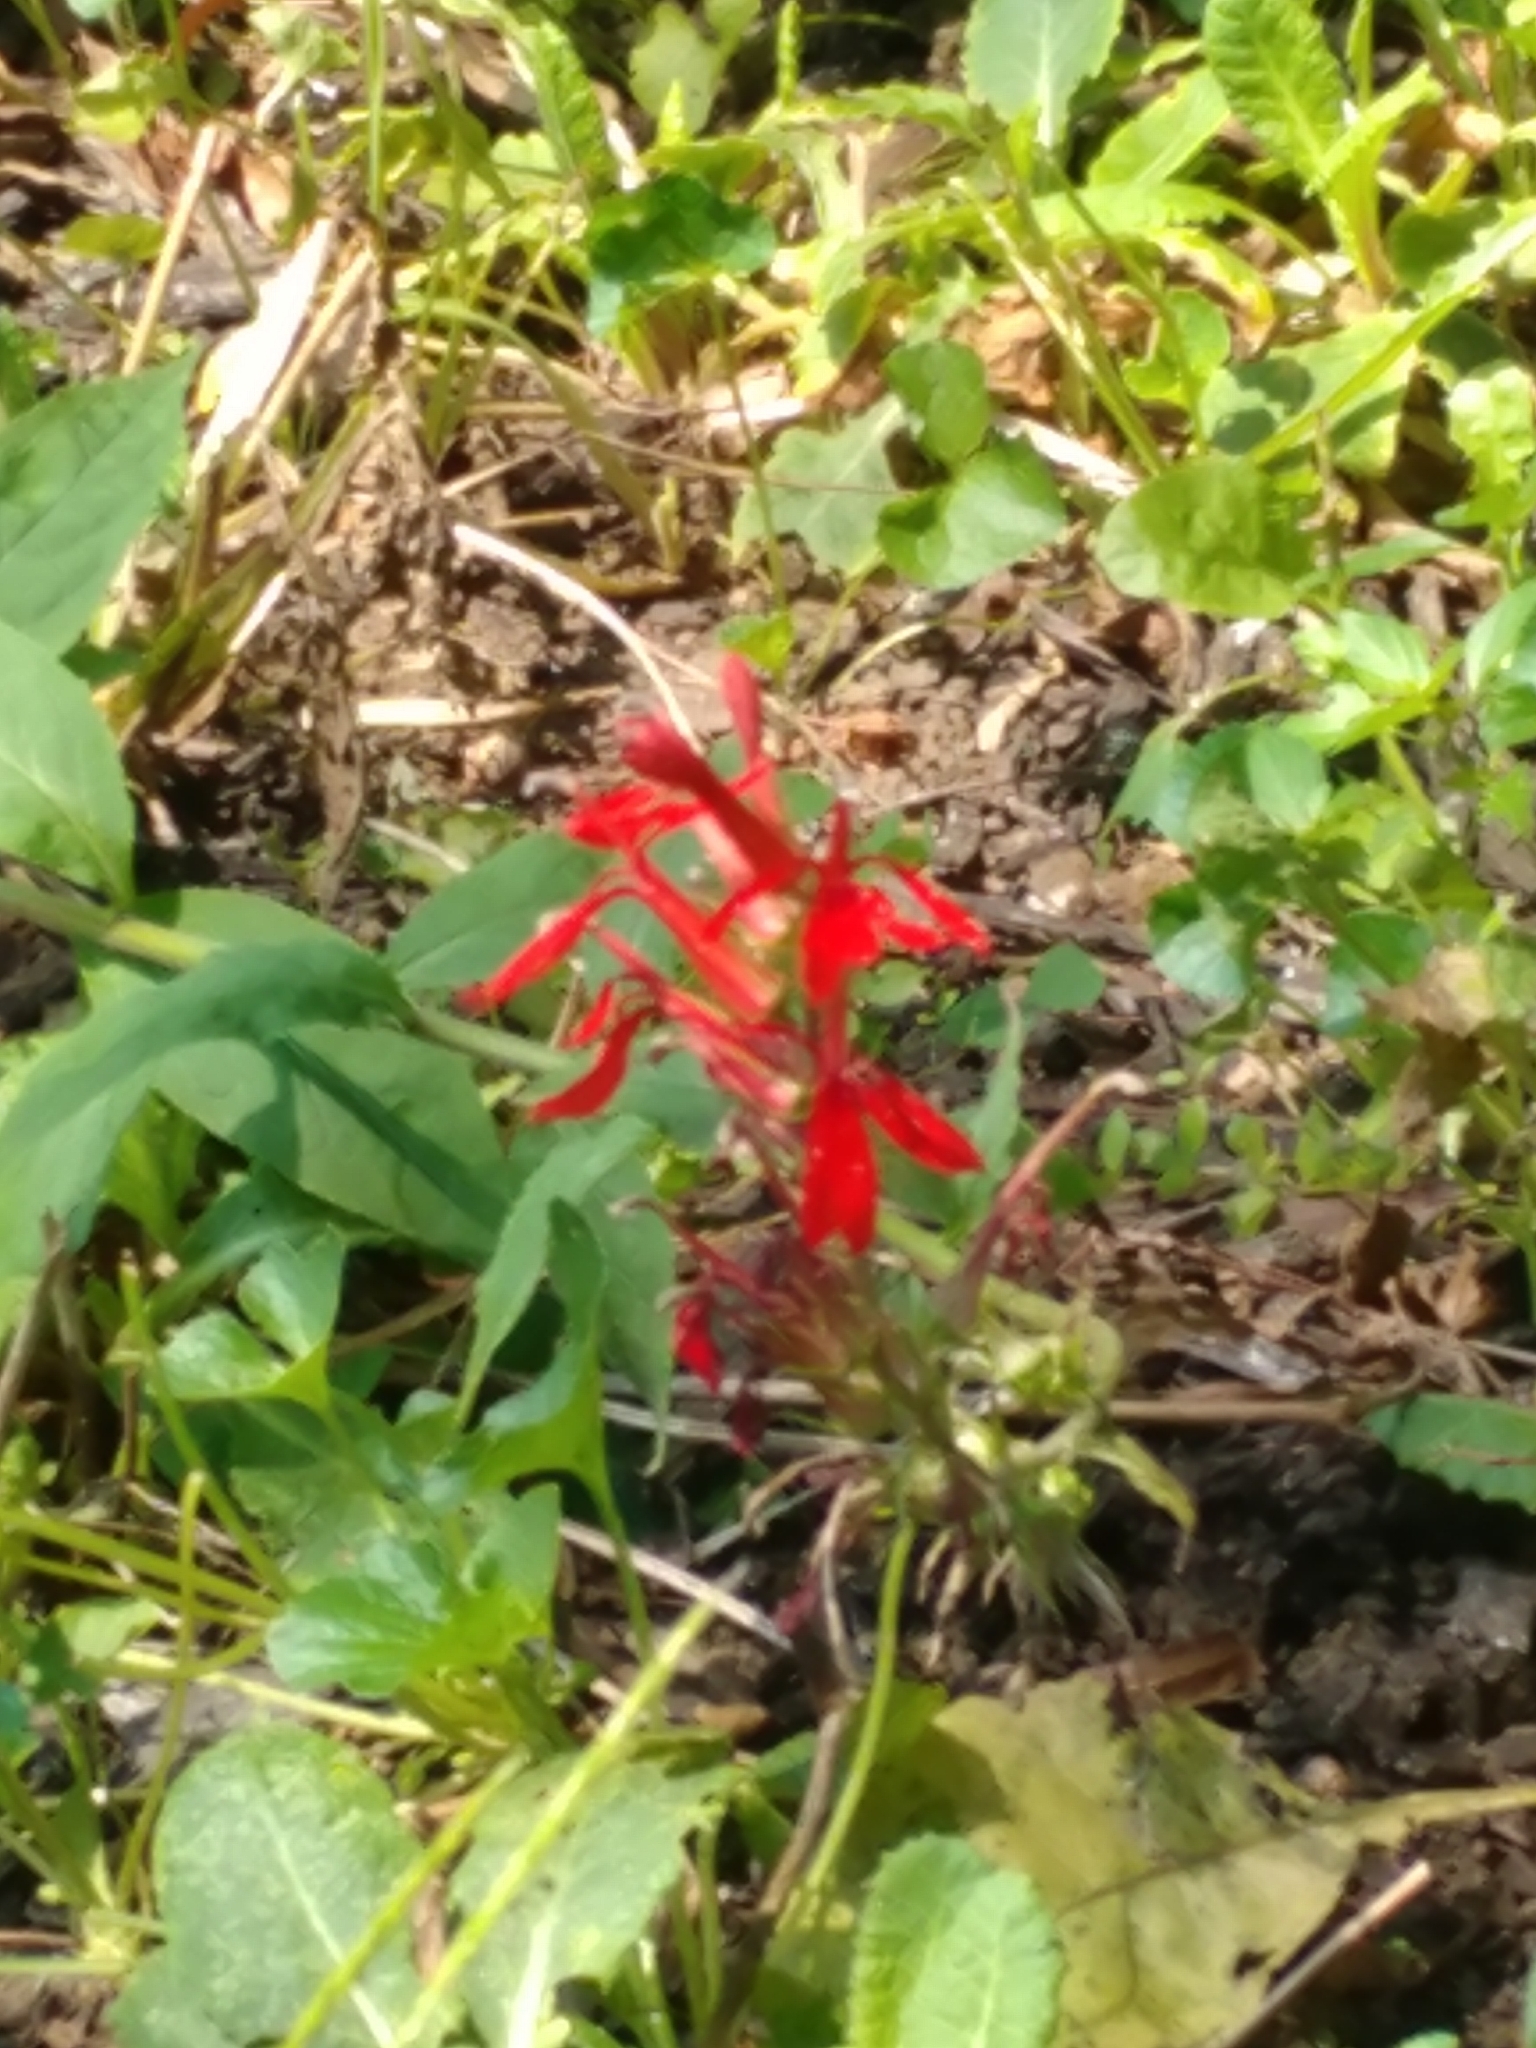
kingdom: Plantae
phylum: Tracheophyta
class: Magnoliopsida
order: Asterales
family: Campanulaceae
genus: Lobelia
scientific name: Lobelia cardinalis
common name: Cardinal flower
